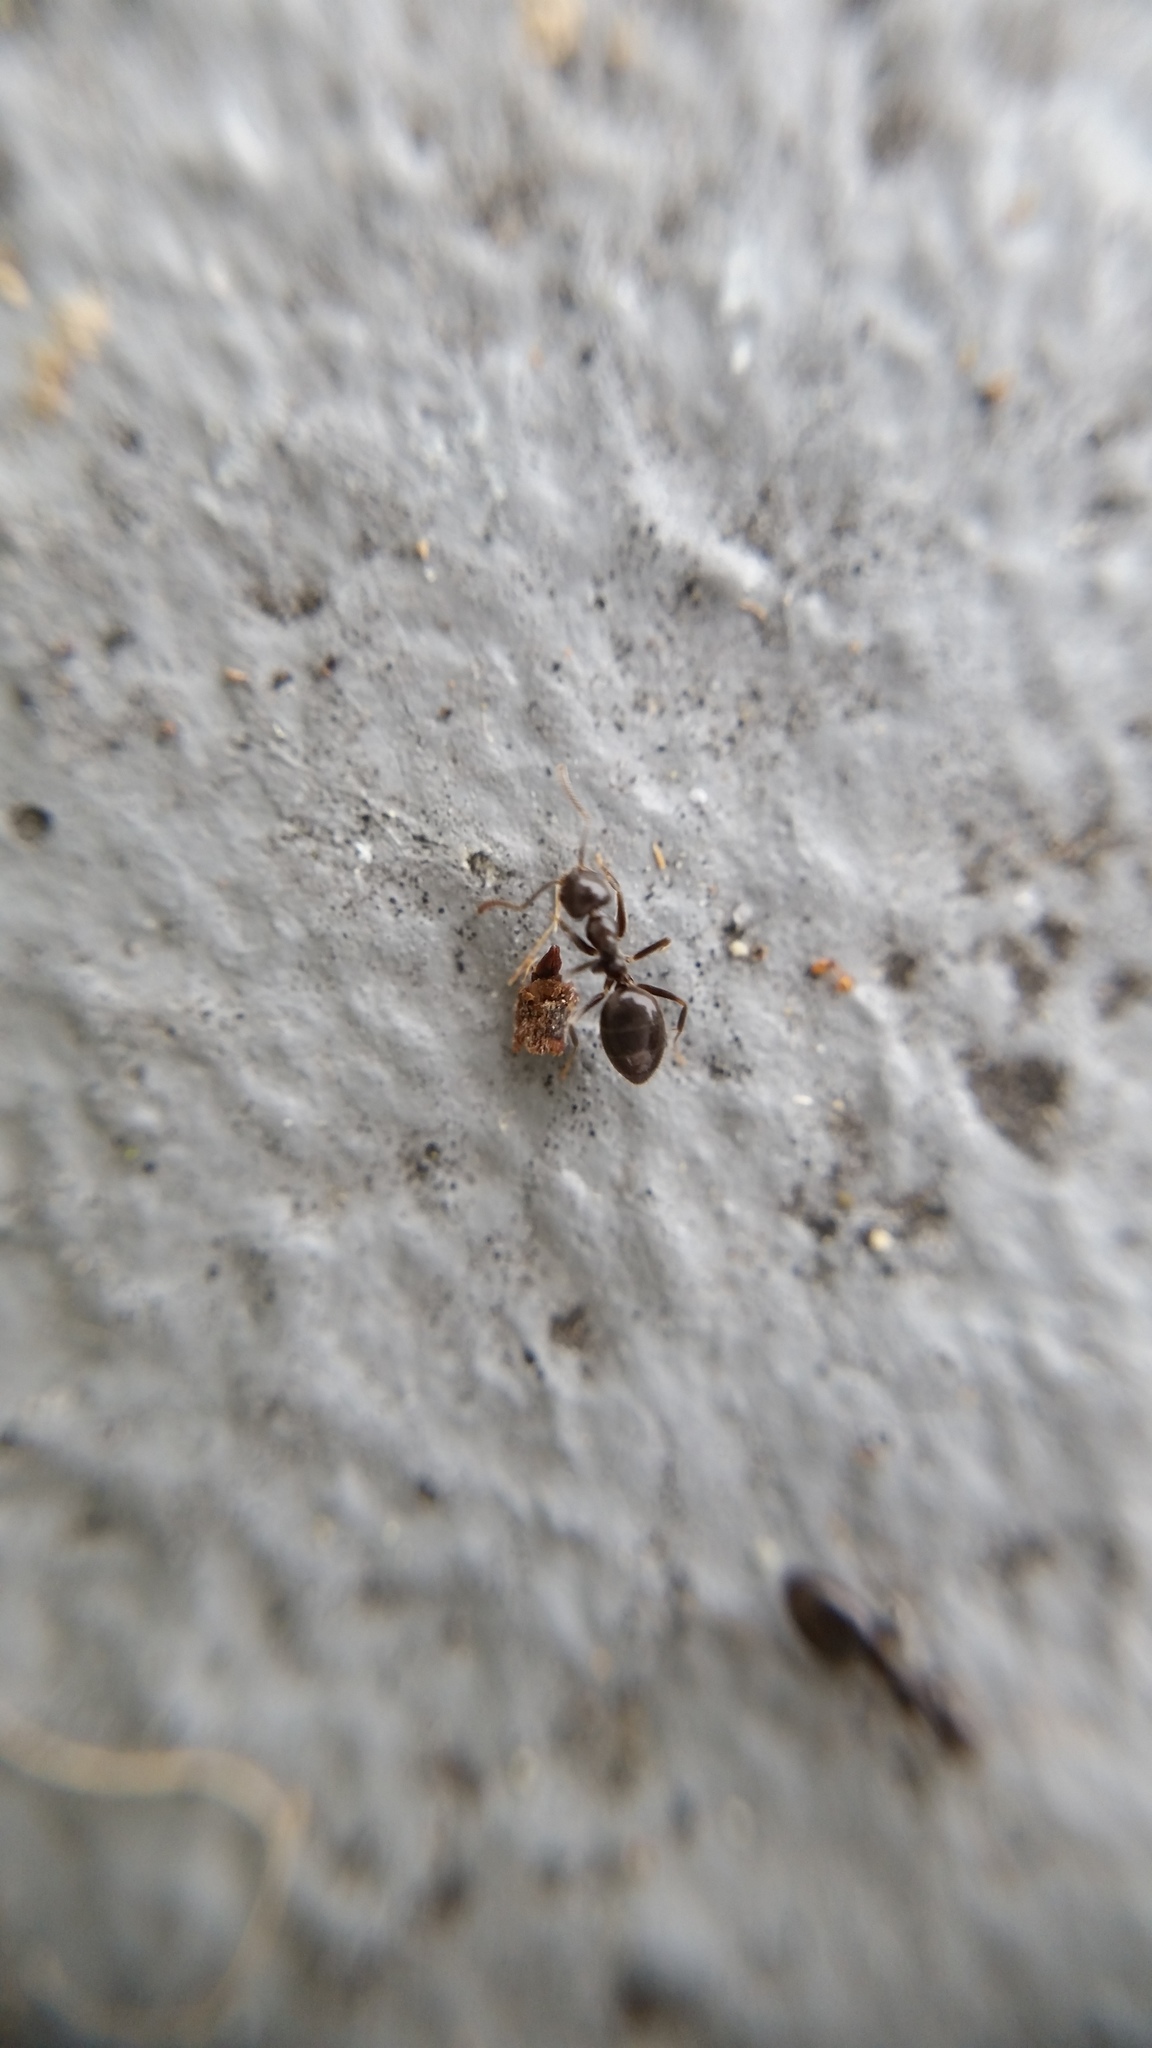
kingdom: Animalia
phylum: Arthropoda
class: Insecta
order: Hymenoptera
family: Formicidae
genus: Technomyrmex
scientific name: Technomyrmex jocosus
